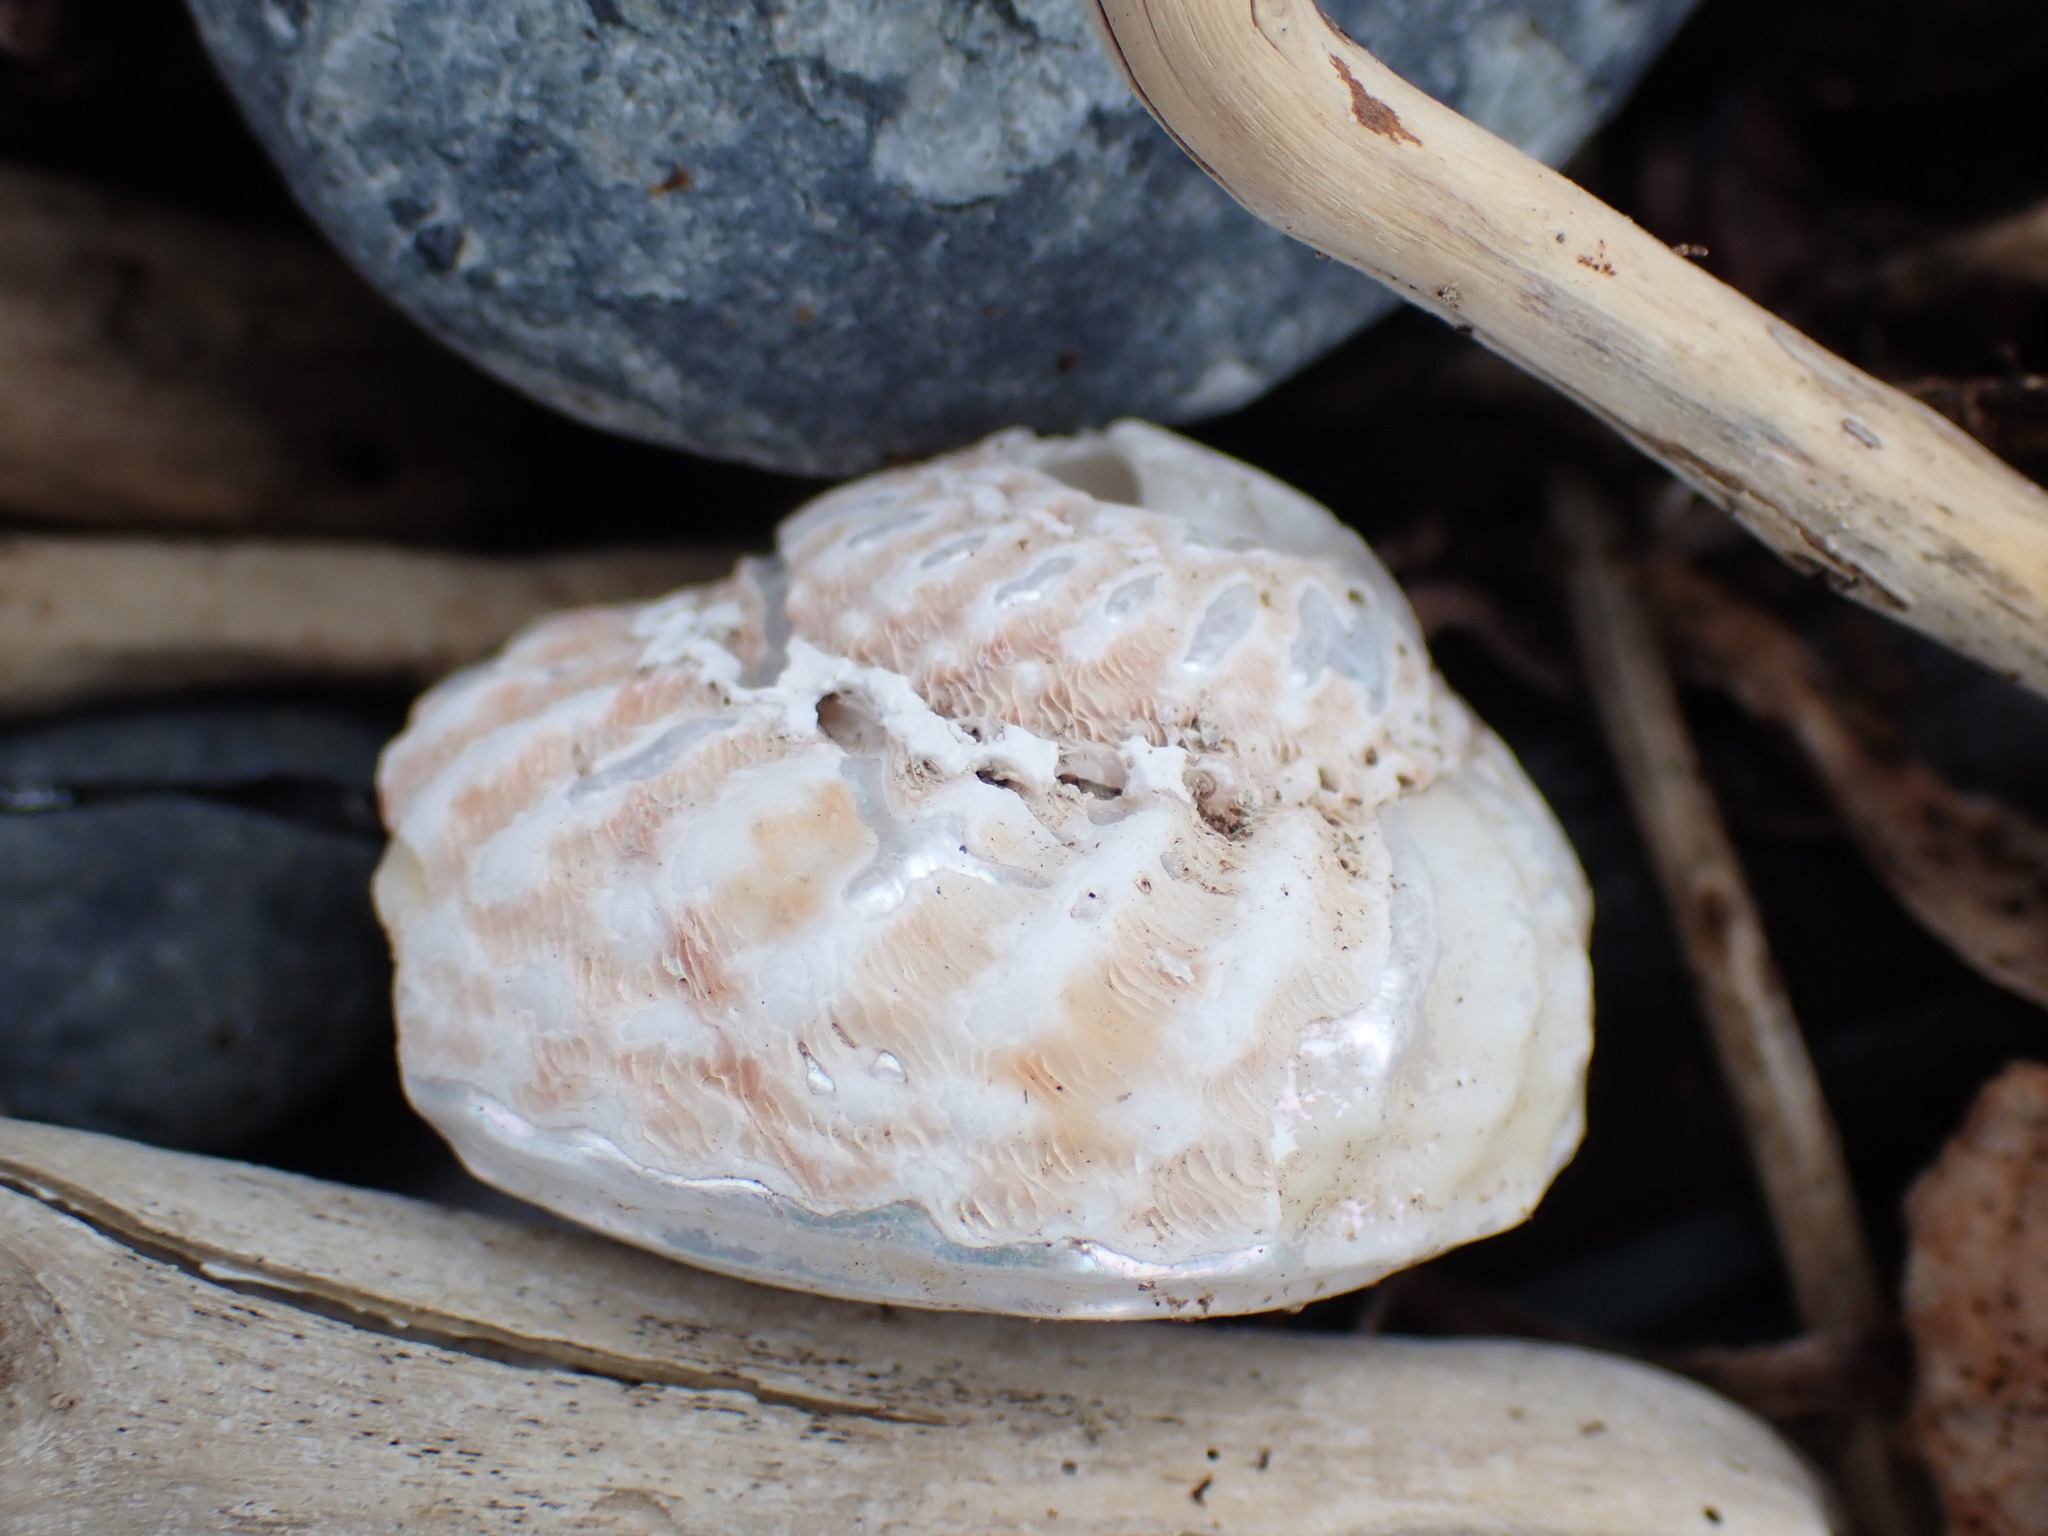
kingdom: Animalia
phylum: Mollusca
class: Gastropoda
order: Trochida
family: Turbinidae
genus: Cookia
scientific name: Cookia sulcata
